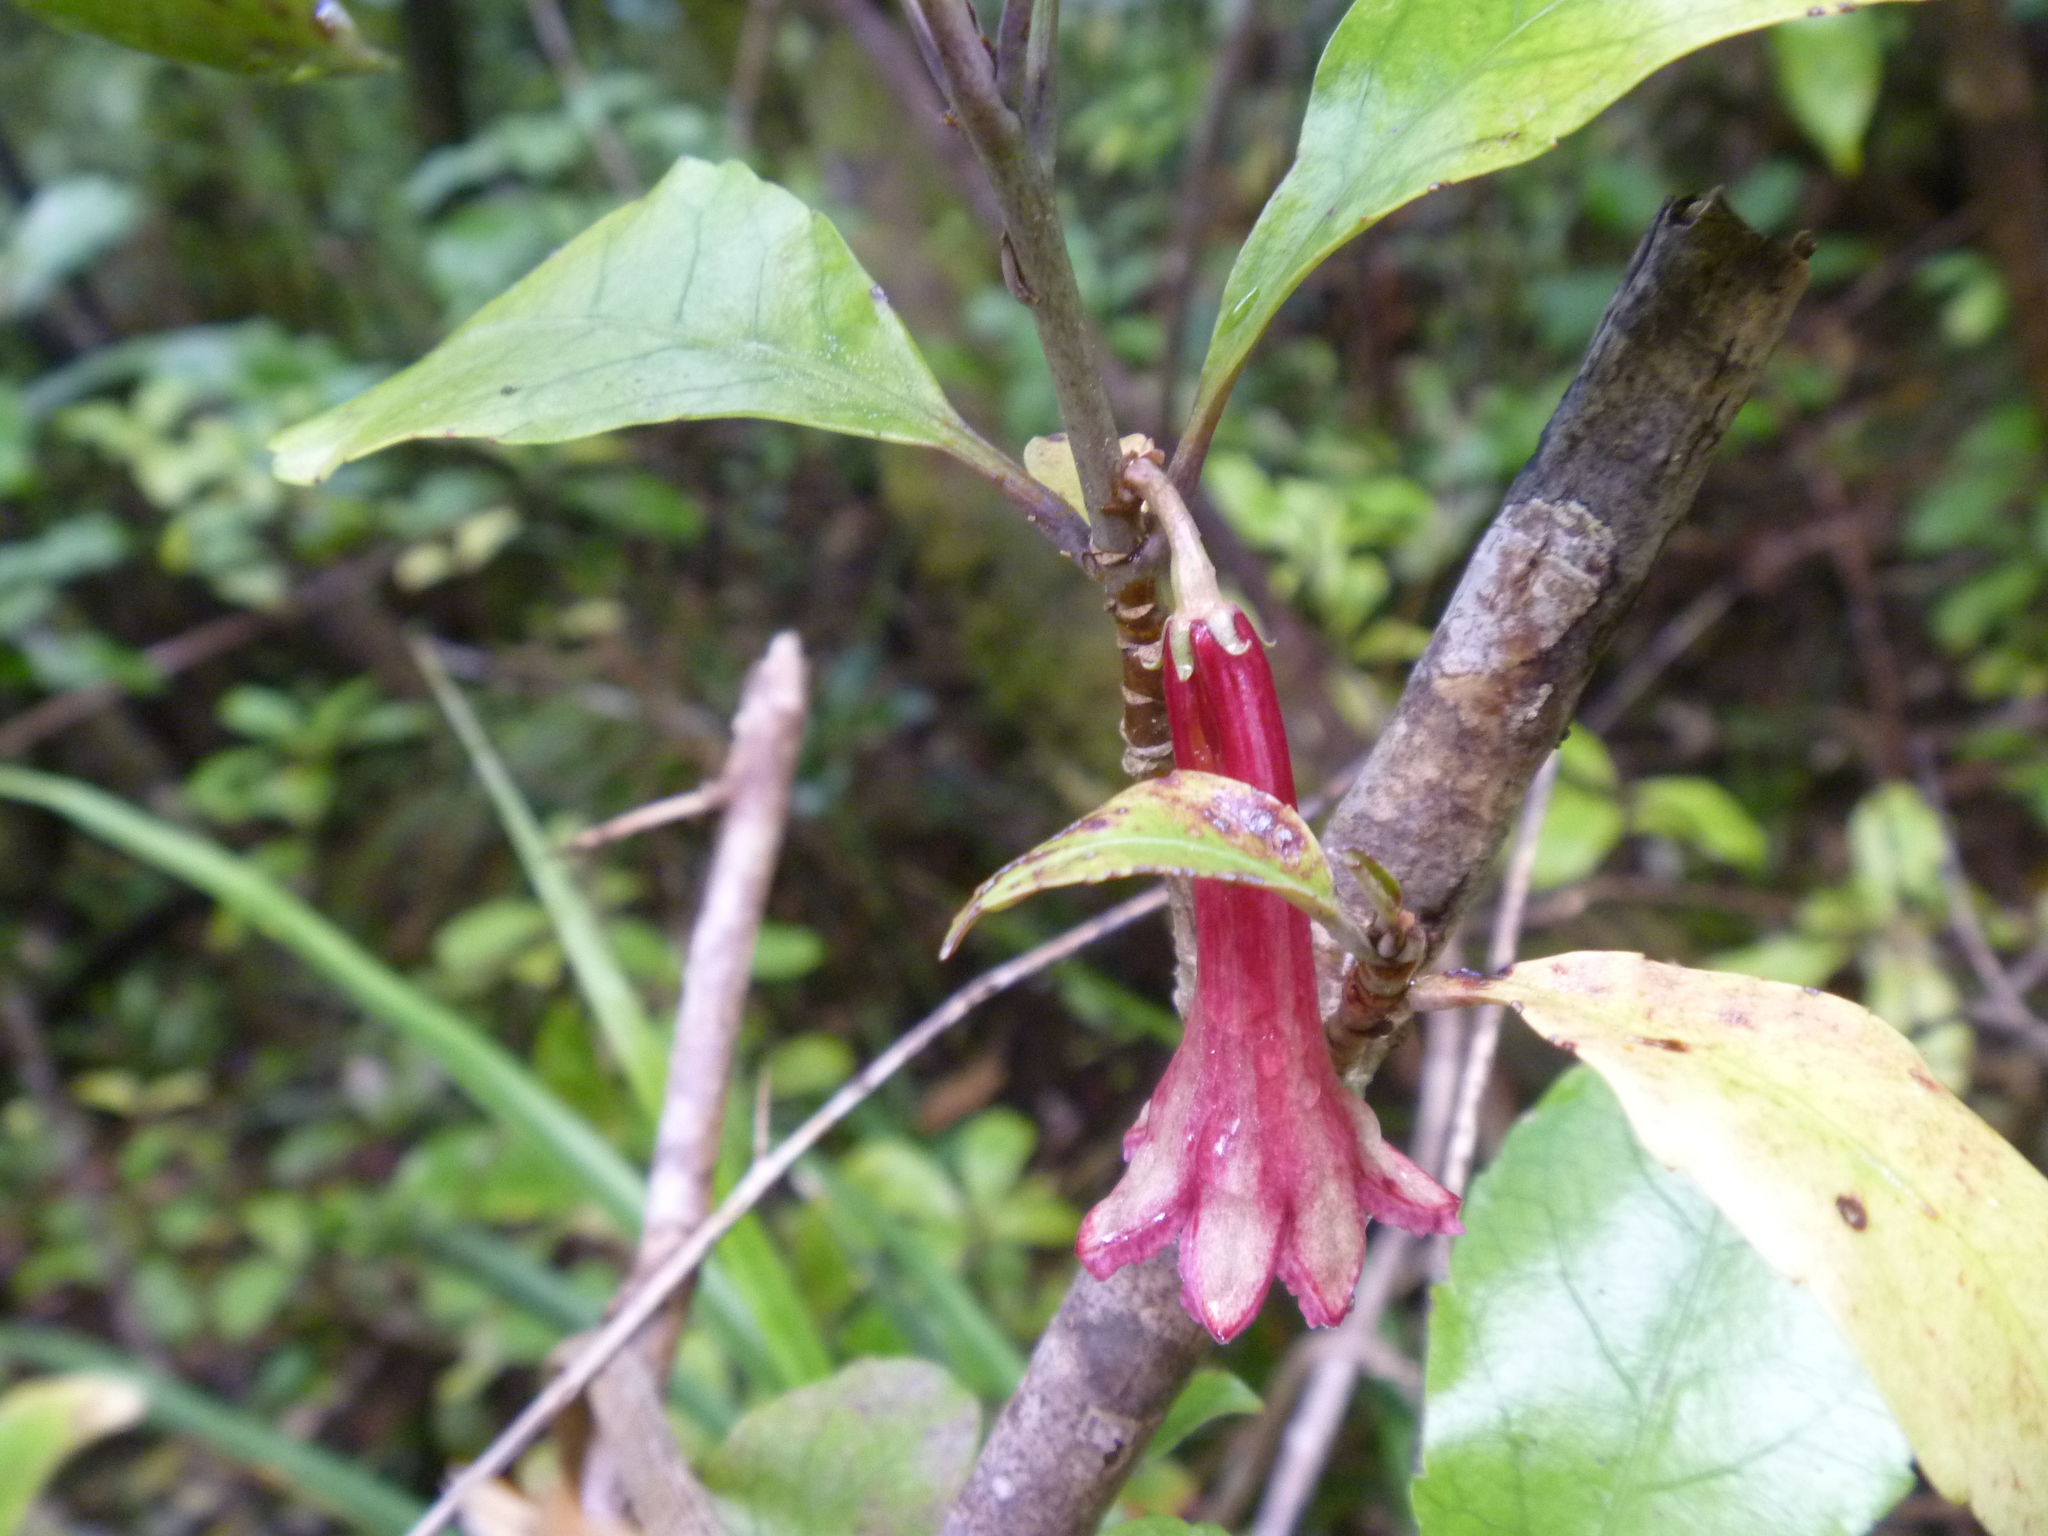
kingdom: Plantae
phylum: Tracheophyta
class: Magnoliopsida
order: Asterales
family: Alseuosmiaceae
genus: Alseuosmia
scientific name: Alseuosmia macrophylla
